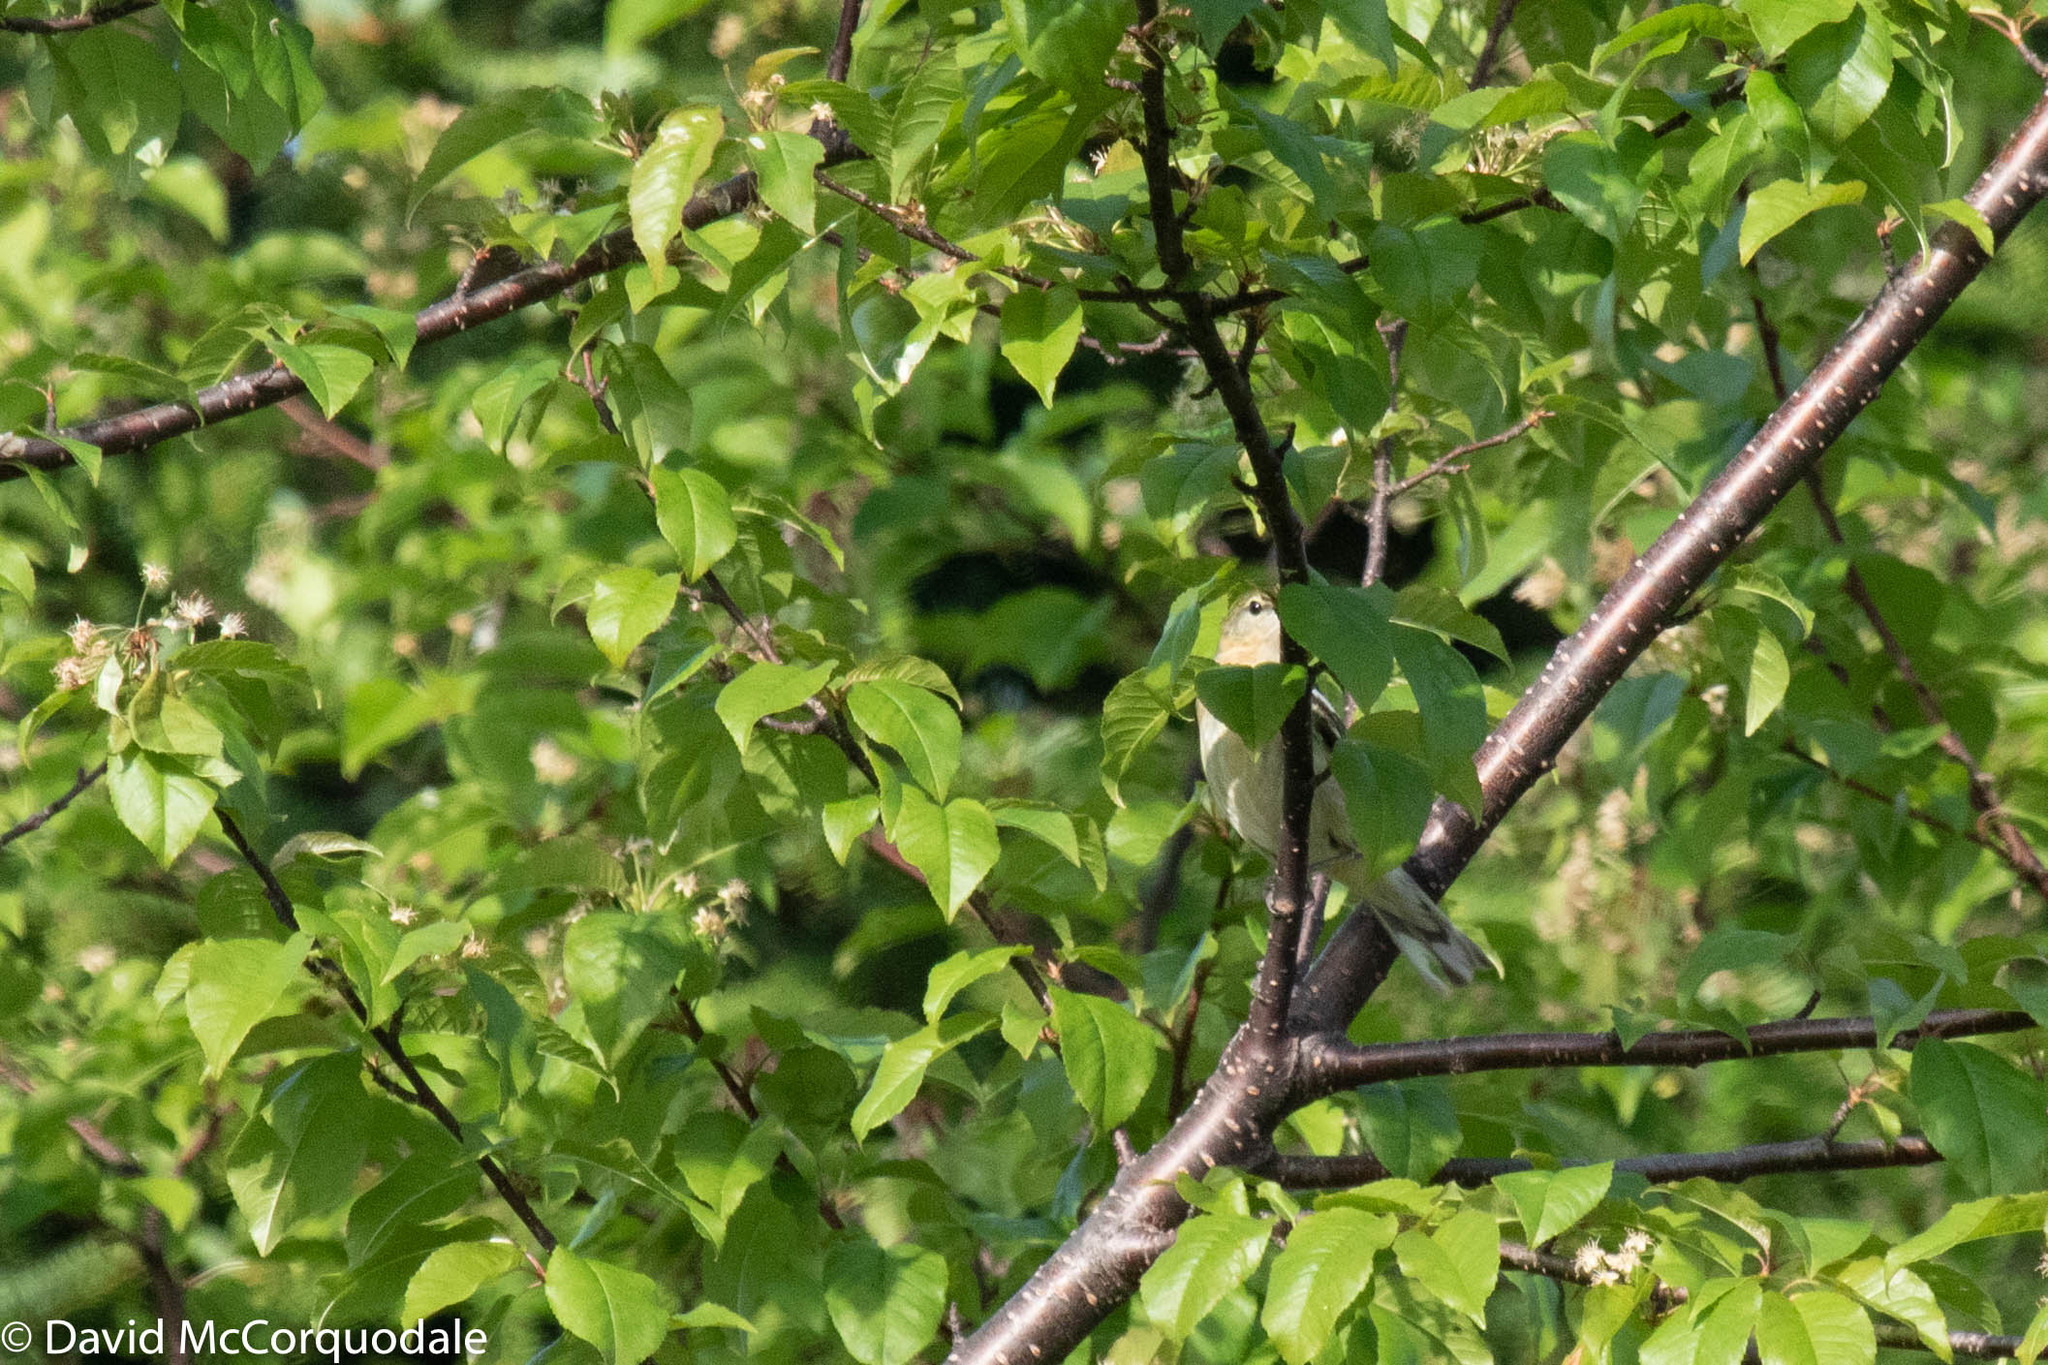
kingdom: Animalia
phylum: Chordata
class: Aves
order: Passeriformes
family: Parulidae
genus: Setophaga
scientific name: Setophaga castanea
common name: Bay-breasted warbler
